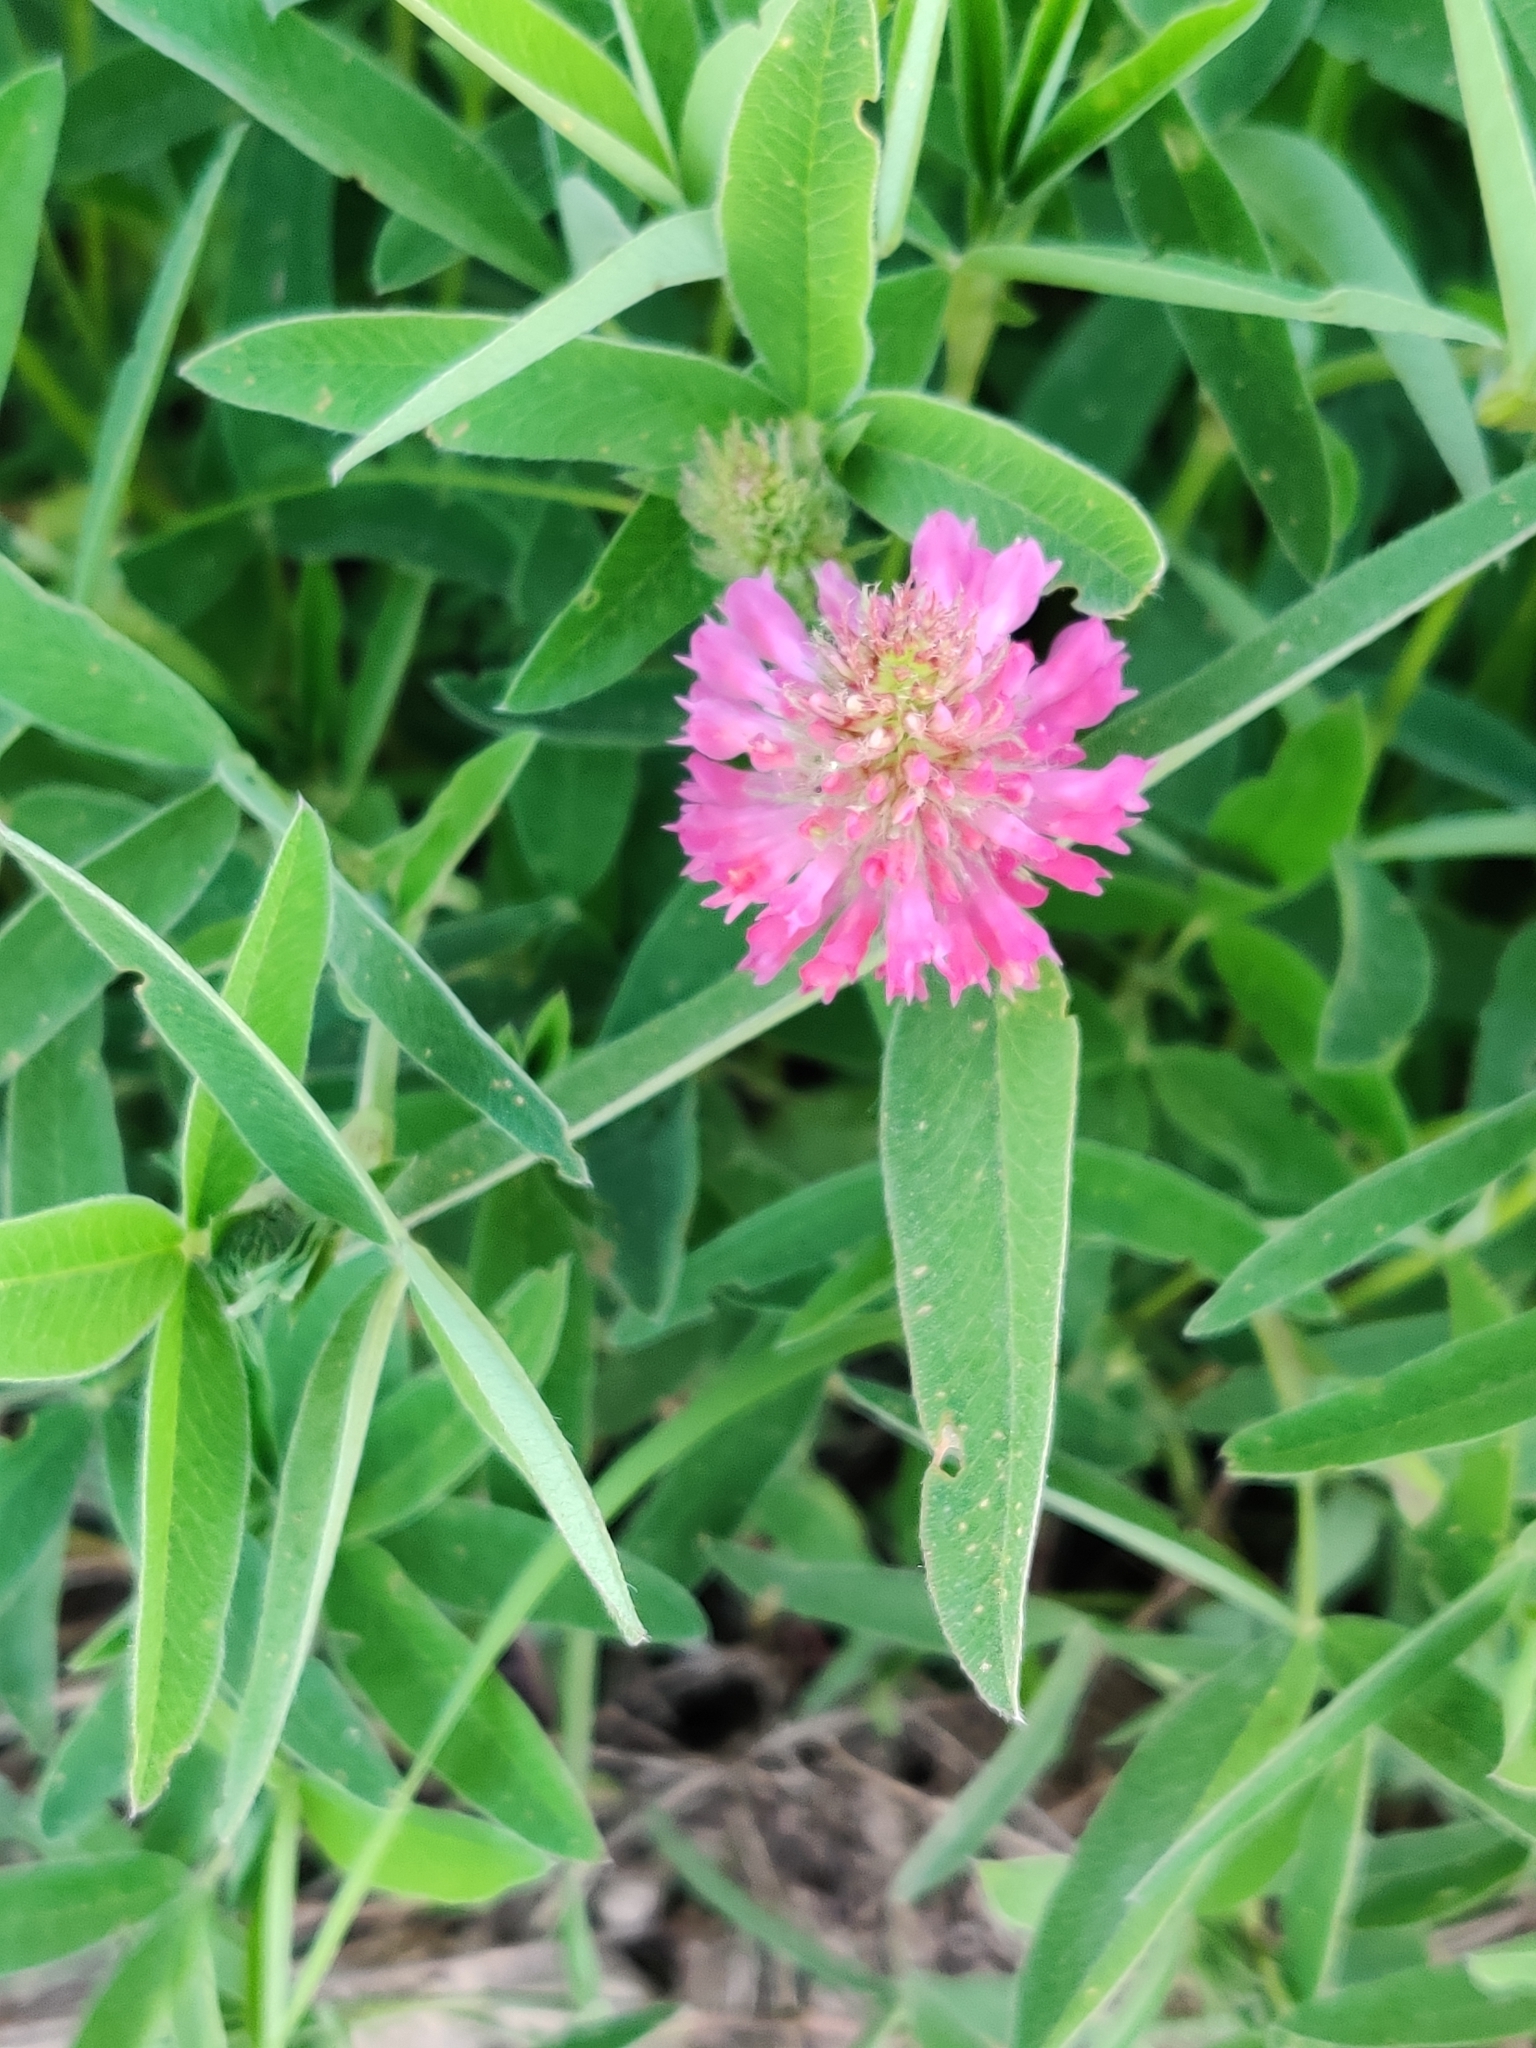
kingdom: Plantae
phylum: Tracheophyta
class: Magnoliopsida
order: Fabales
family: Fabaceae
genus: Trifolium
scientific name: Trifolium medium
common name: Zigzag clover
